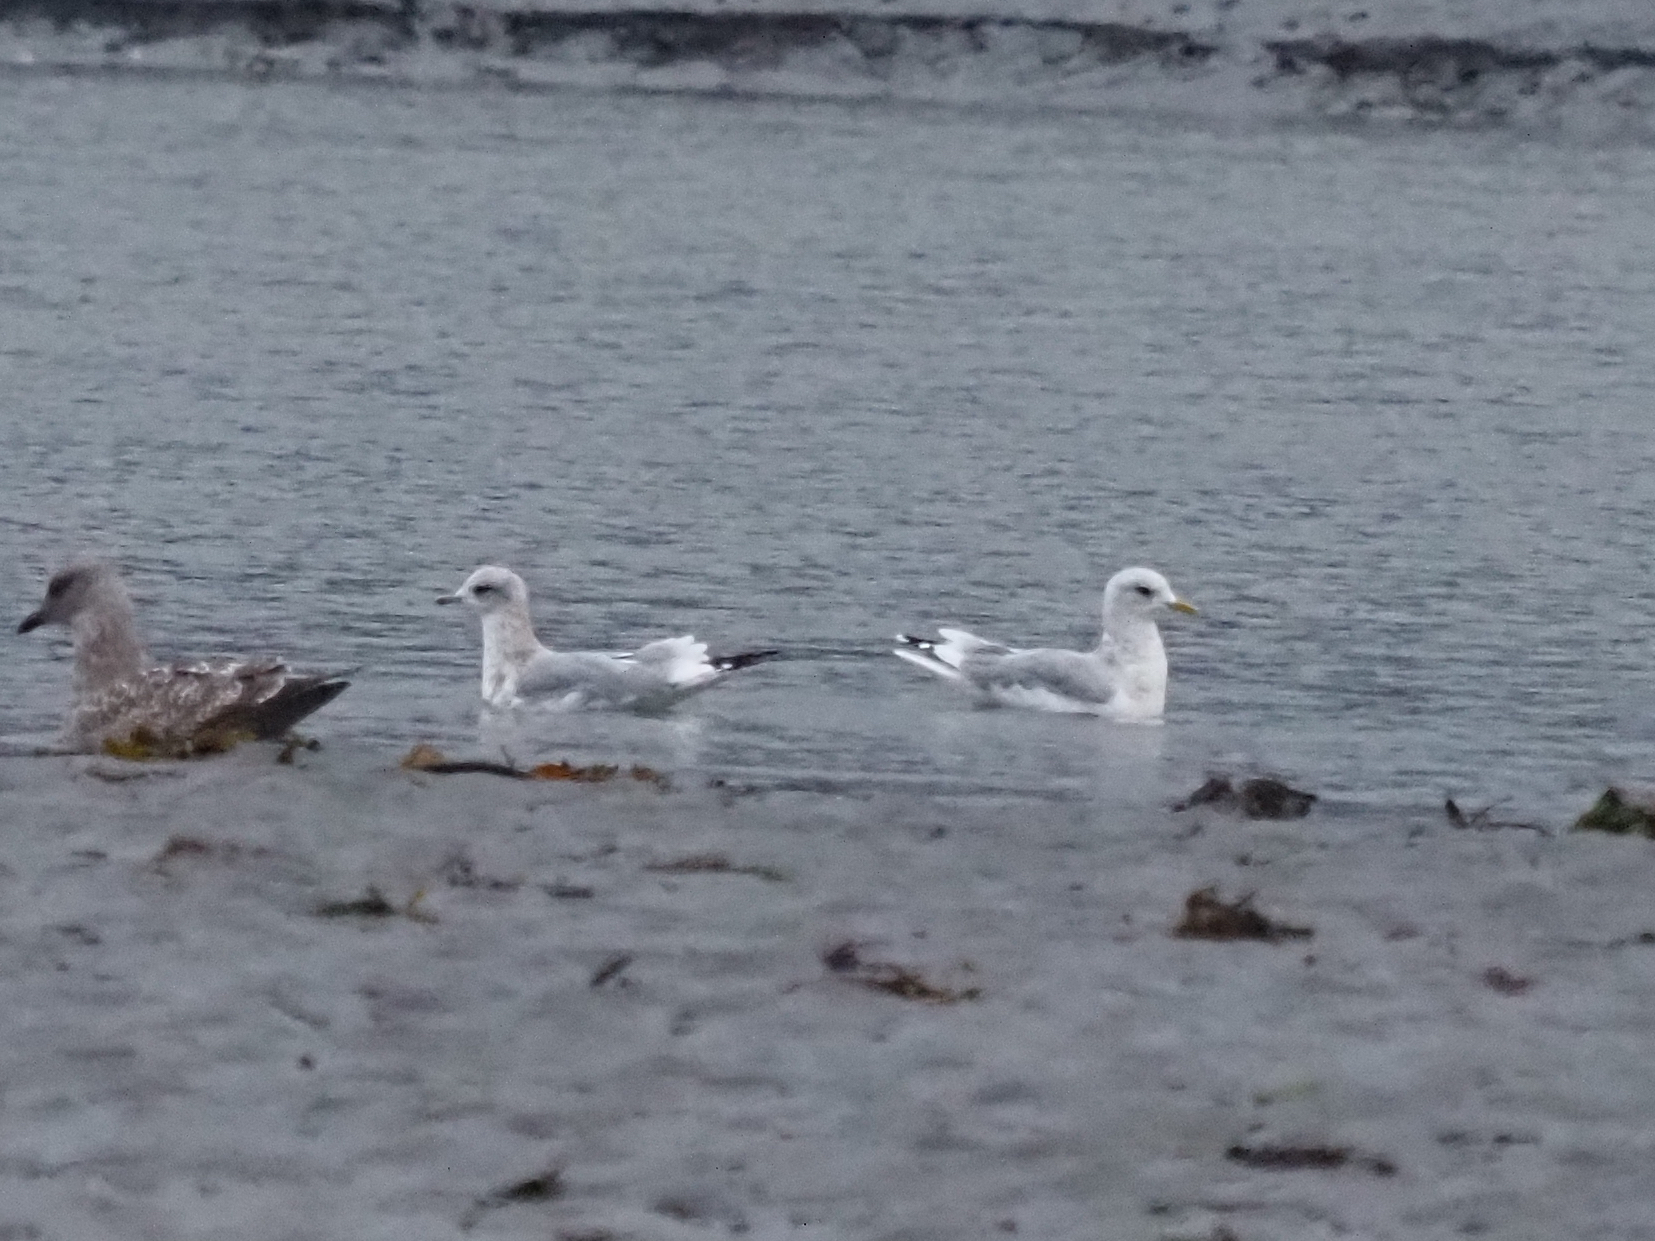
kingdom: Animalia
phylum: Chordata
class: Aves
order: Charadriiformes
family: Laridae
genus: Larus
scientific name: Larus brachyrhynchus
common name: Short-billed gull
